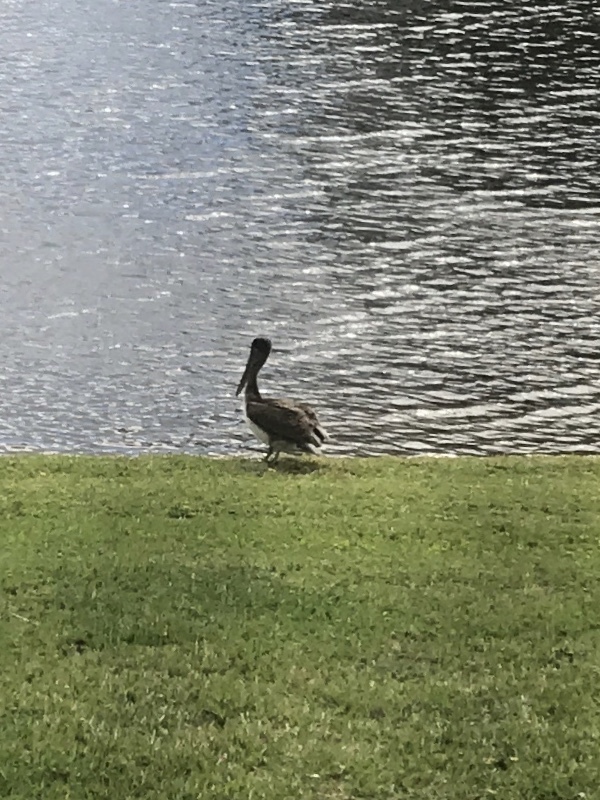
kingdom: Animalia
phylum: Chordata
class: Aves
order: Pelecaniformes
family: Pelecanidae
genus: Pelecanus
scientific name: Pelecanus occidentalis
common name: Brown pelican
